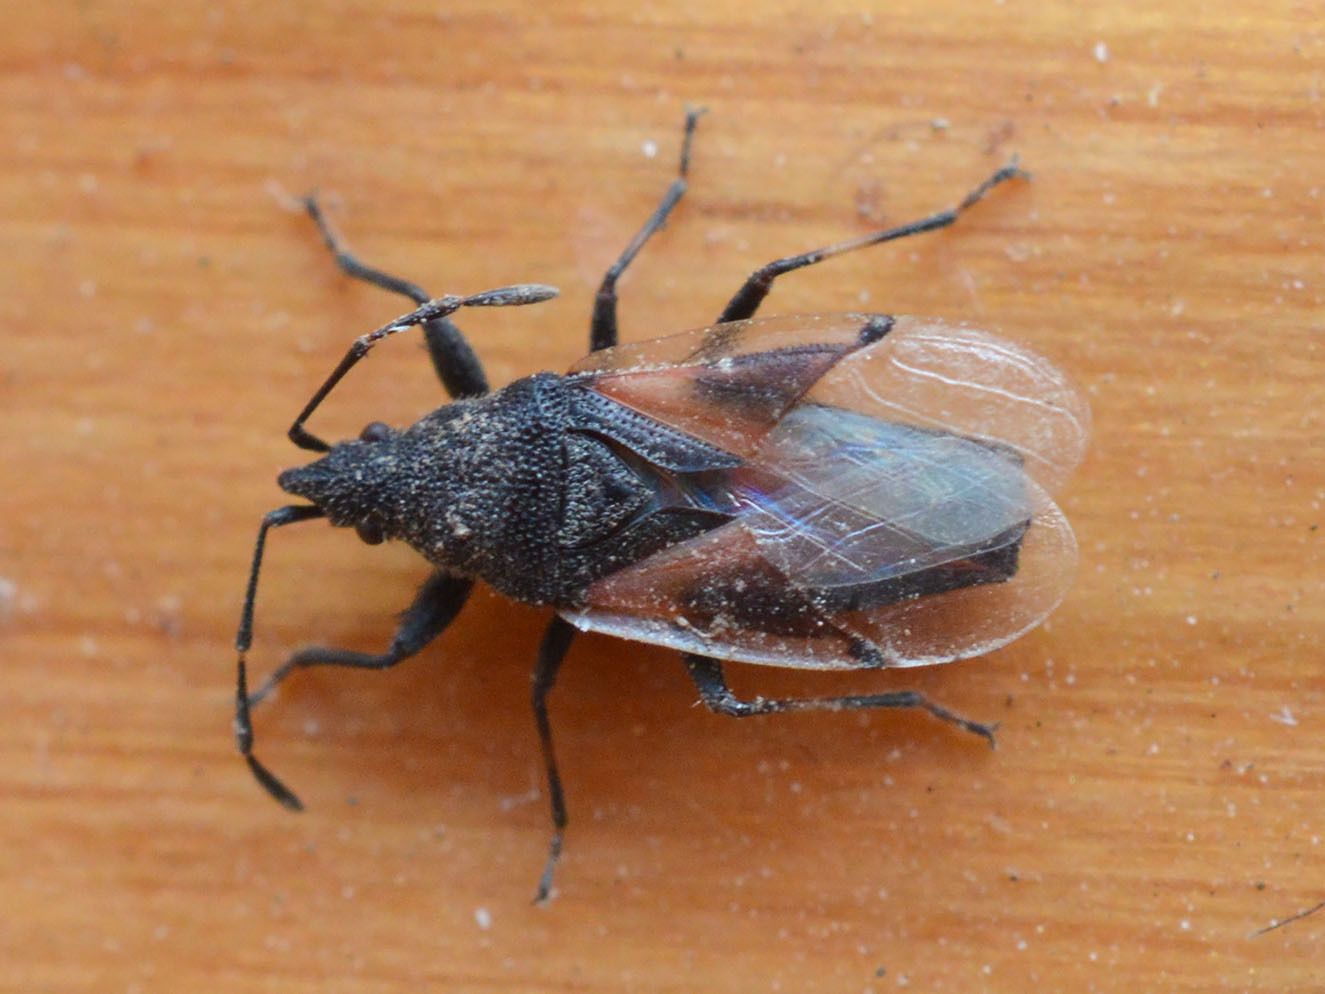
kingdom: Animalia
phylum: Arthropoda
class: Insecta
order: Hemiptera
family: Oxycarenidae
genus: Oxycarenus
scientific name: Oxycarenus lavaterae
